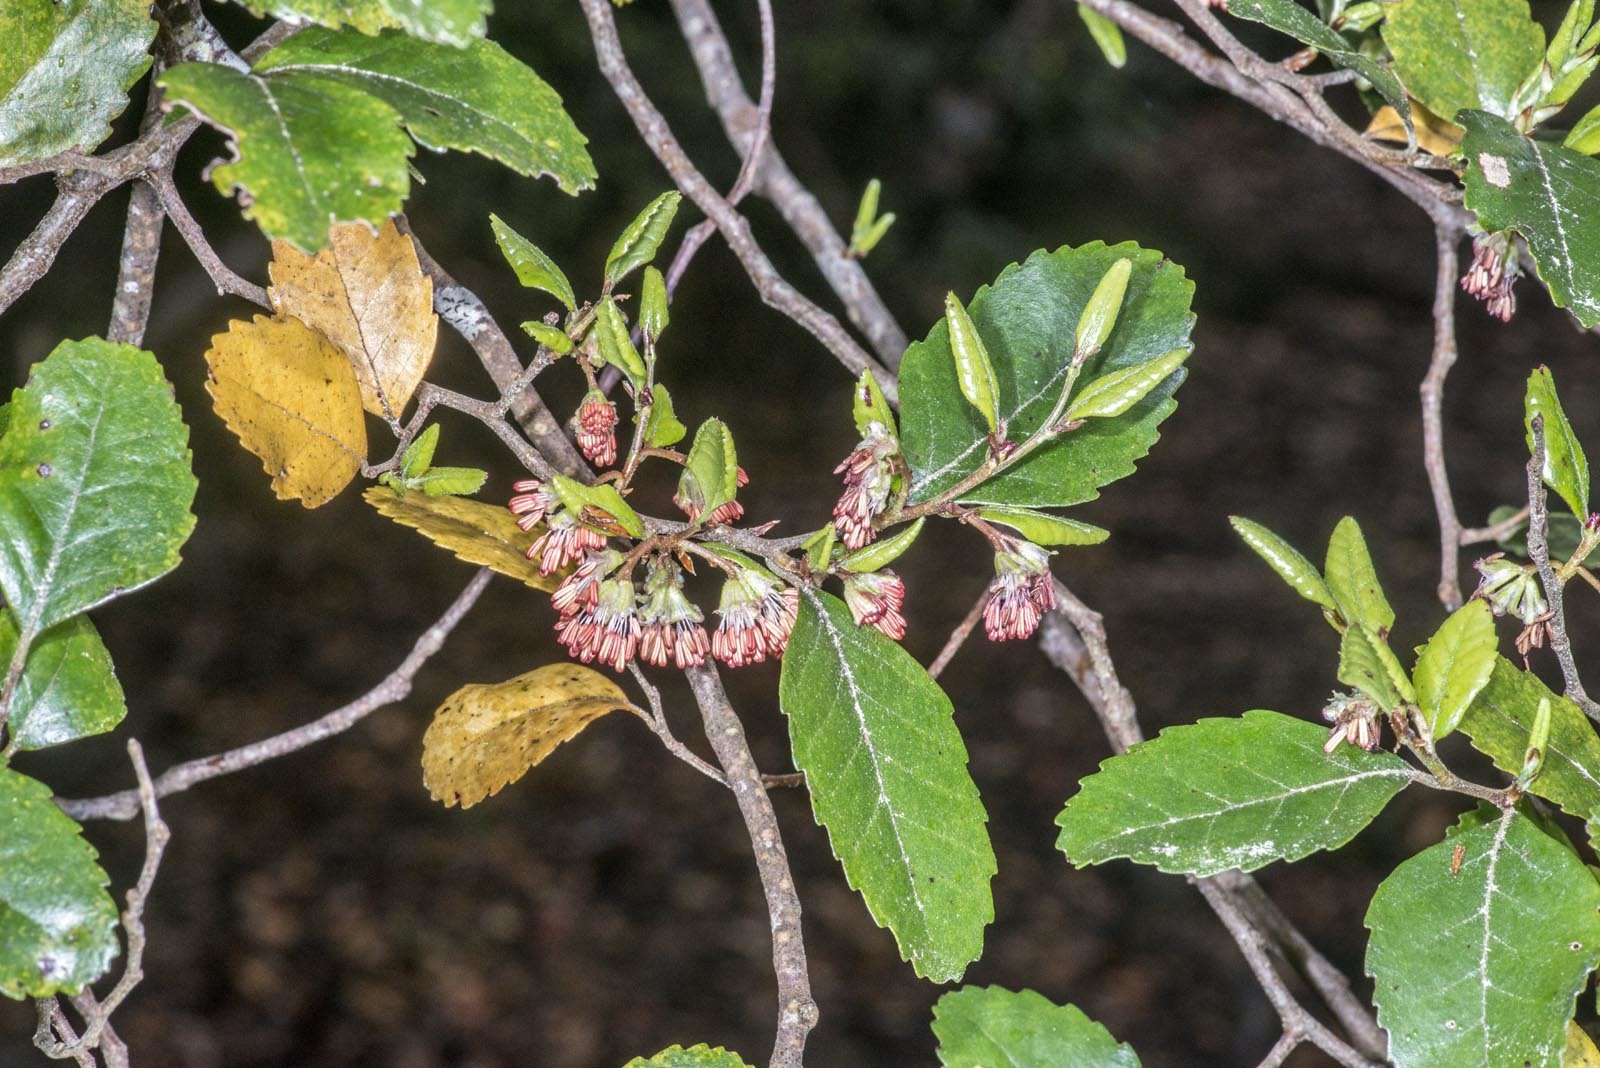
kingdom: Plantae
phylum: Tracheophyta
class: Magnoliopsida
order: Fagales
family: Nothofagaceae
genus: Nothofagus
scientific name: Nothofagus truncata
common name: Hard beech
